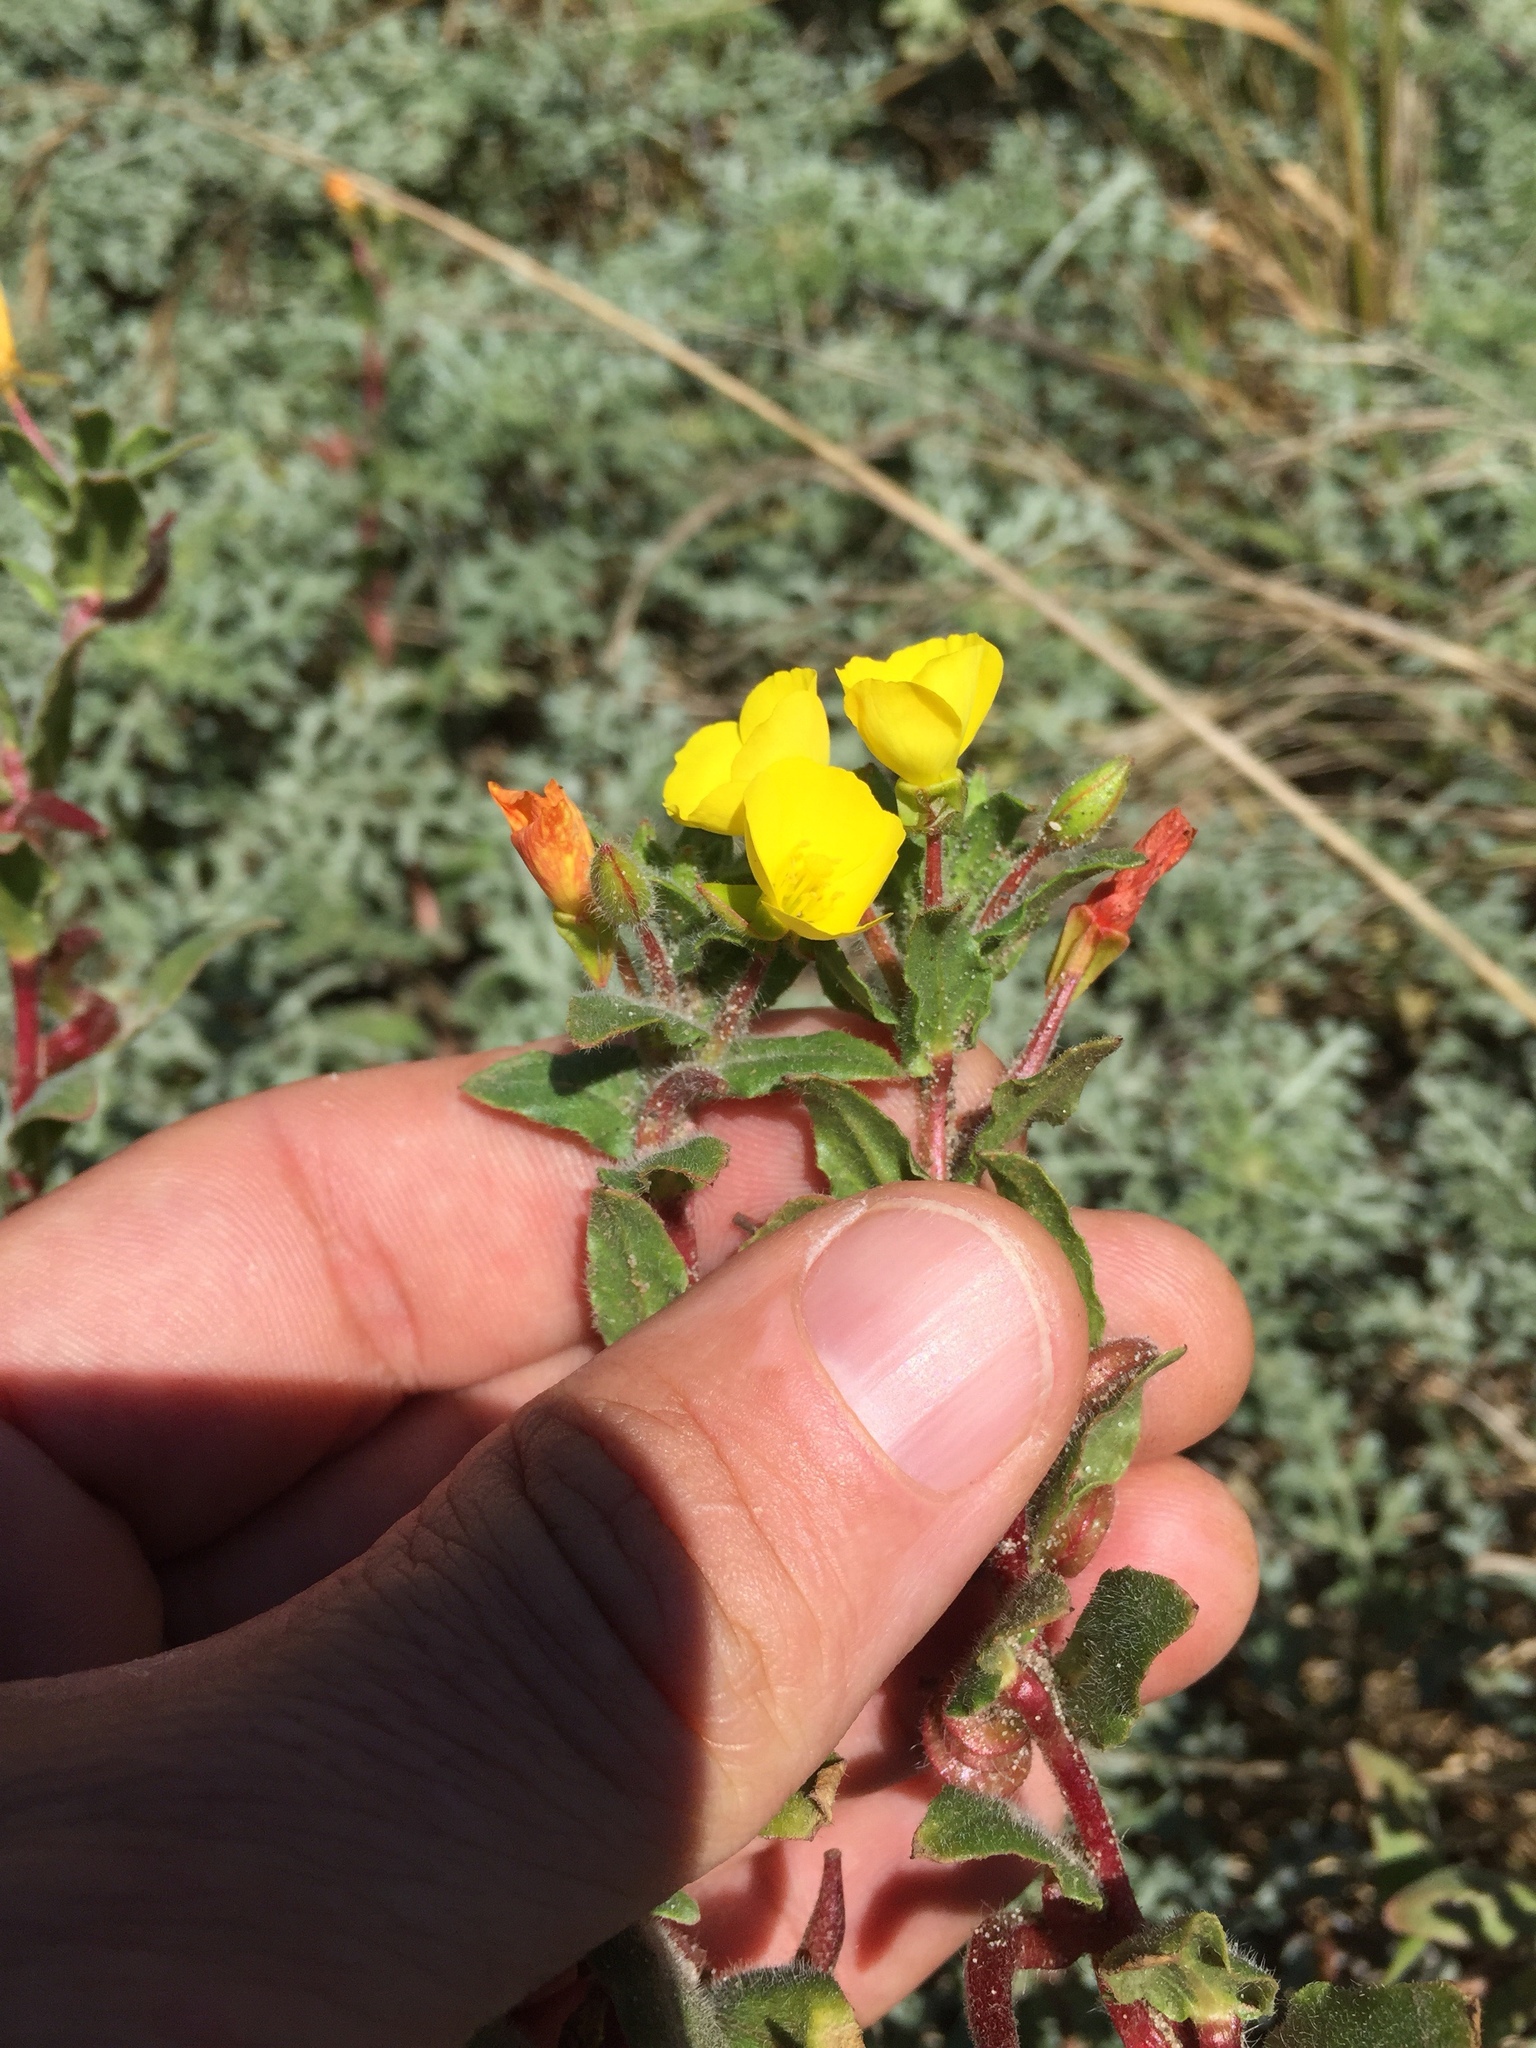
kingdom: Plantae
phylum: Tracheophyta
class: Magnoliopsida
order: Myrtales
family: Onagraceae
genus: Camissoniopsis
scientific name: Camissoniopsis cheiranthifolia
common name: Beach suncup
